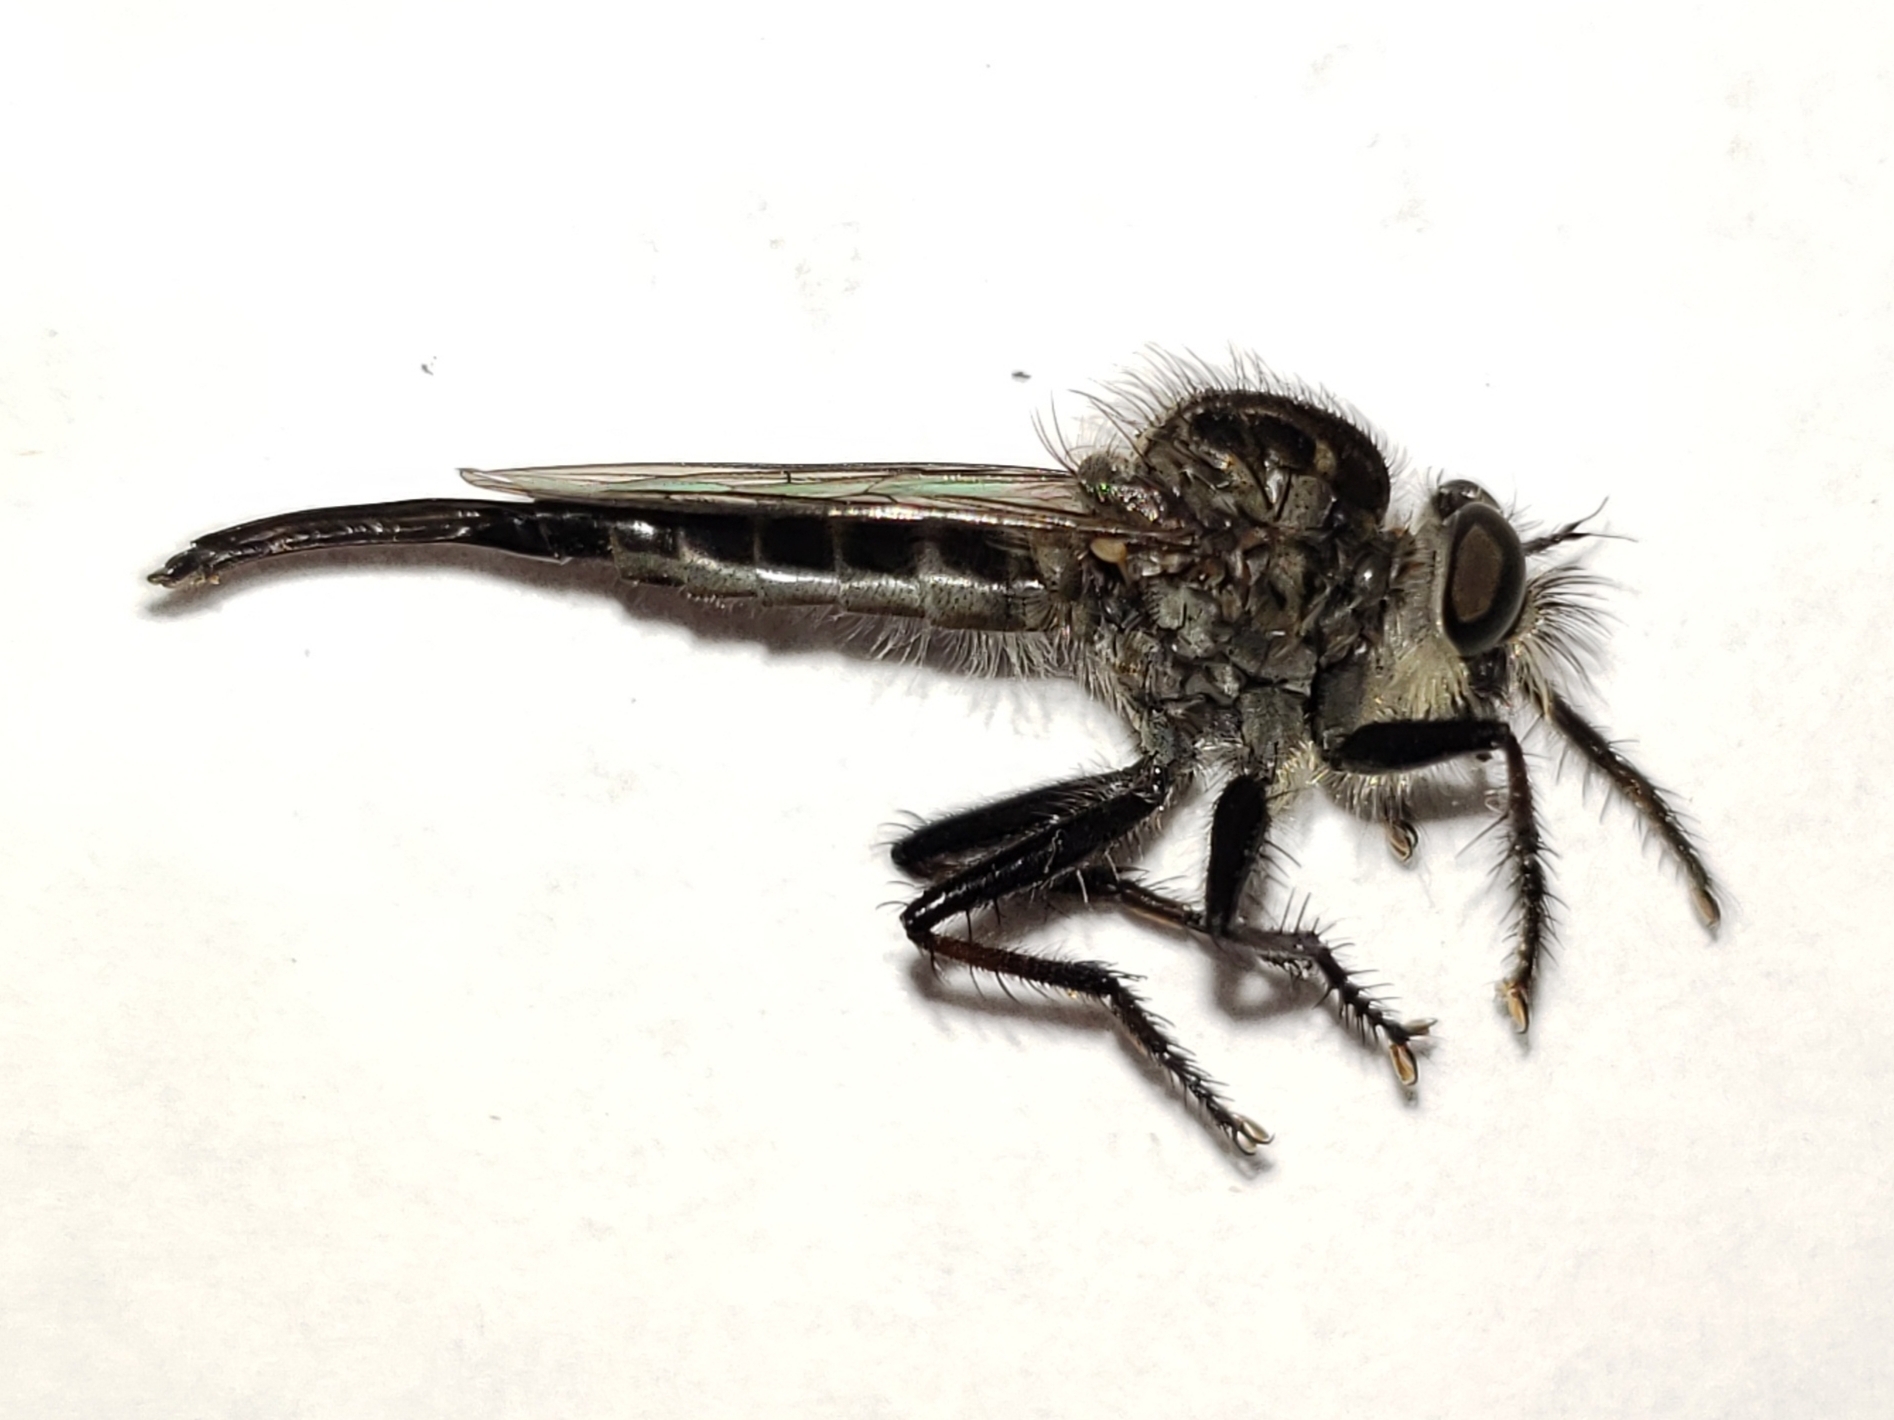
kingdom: Animalia
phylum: Arthropoda
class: Insecta
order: Diptera
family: Asilidae
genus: Efferia
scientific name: Efferia aestuans
